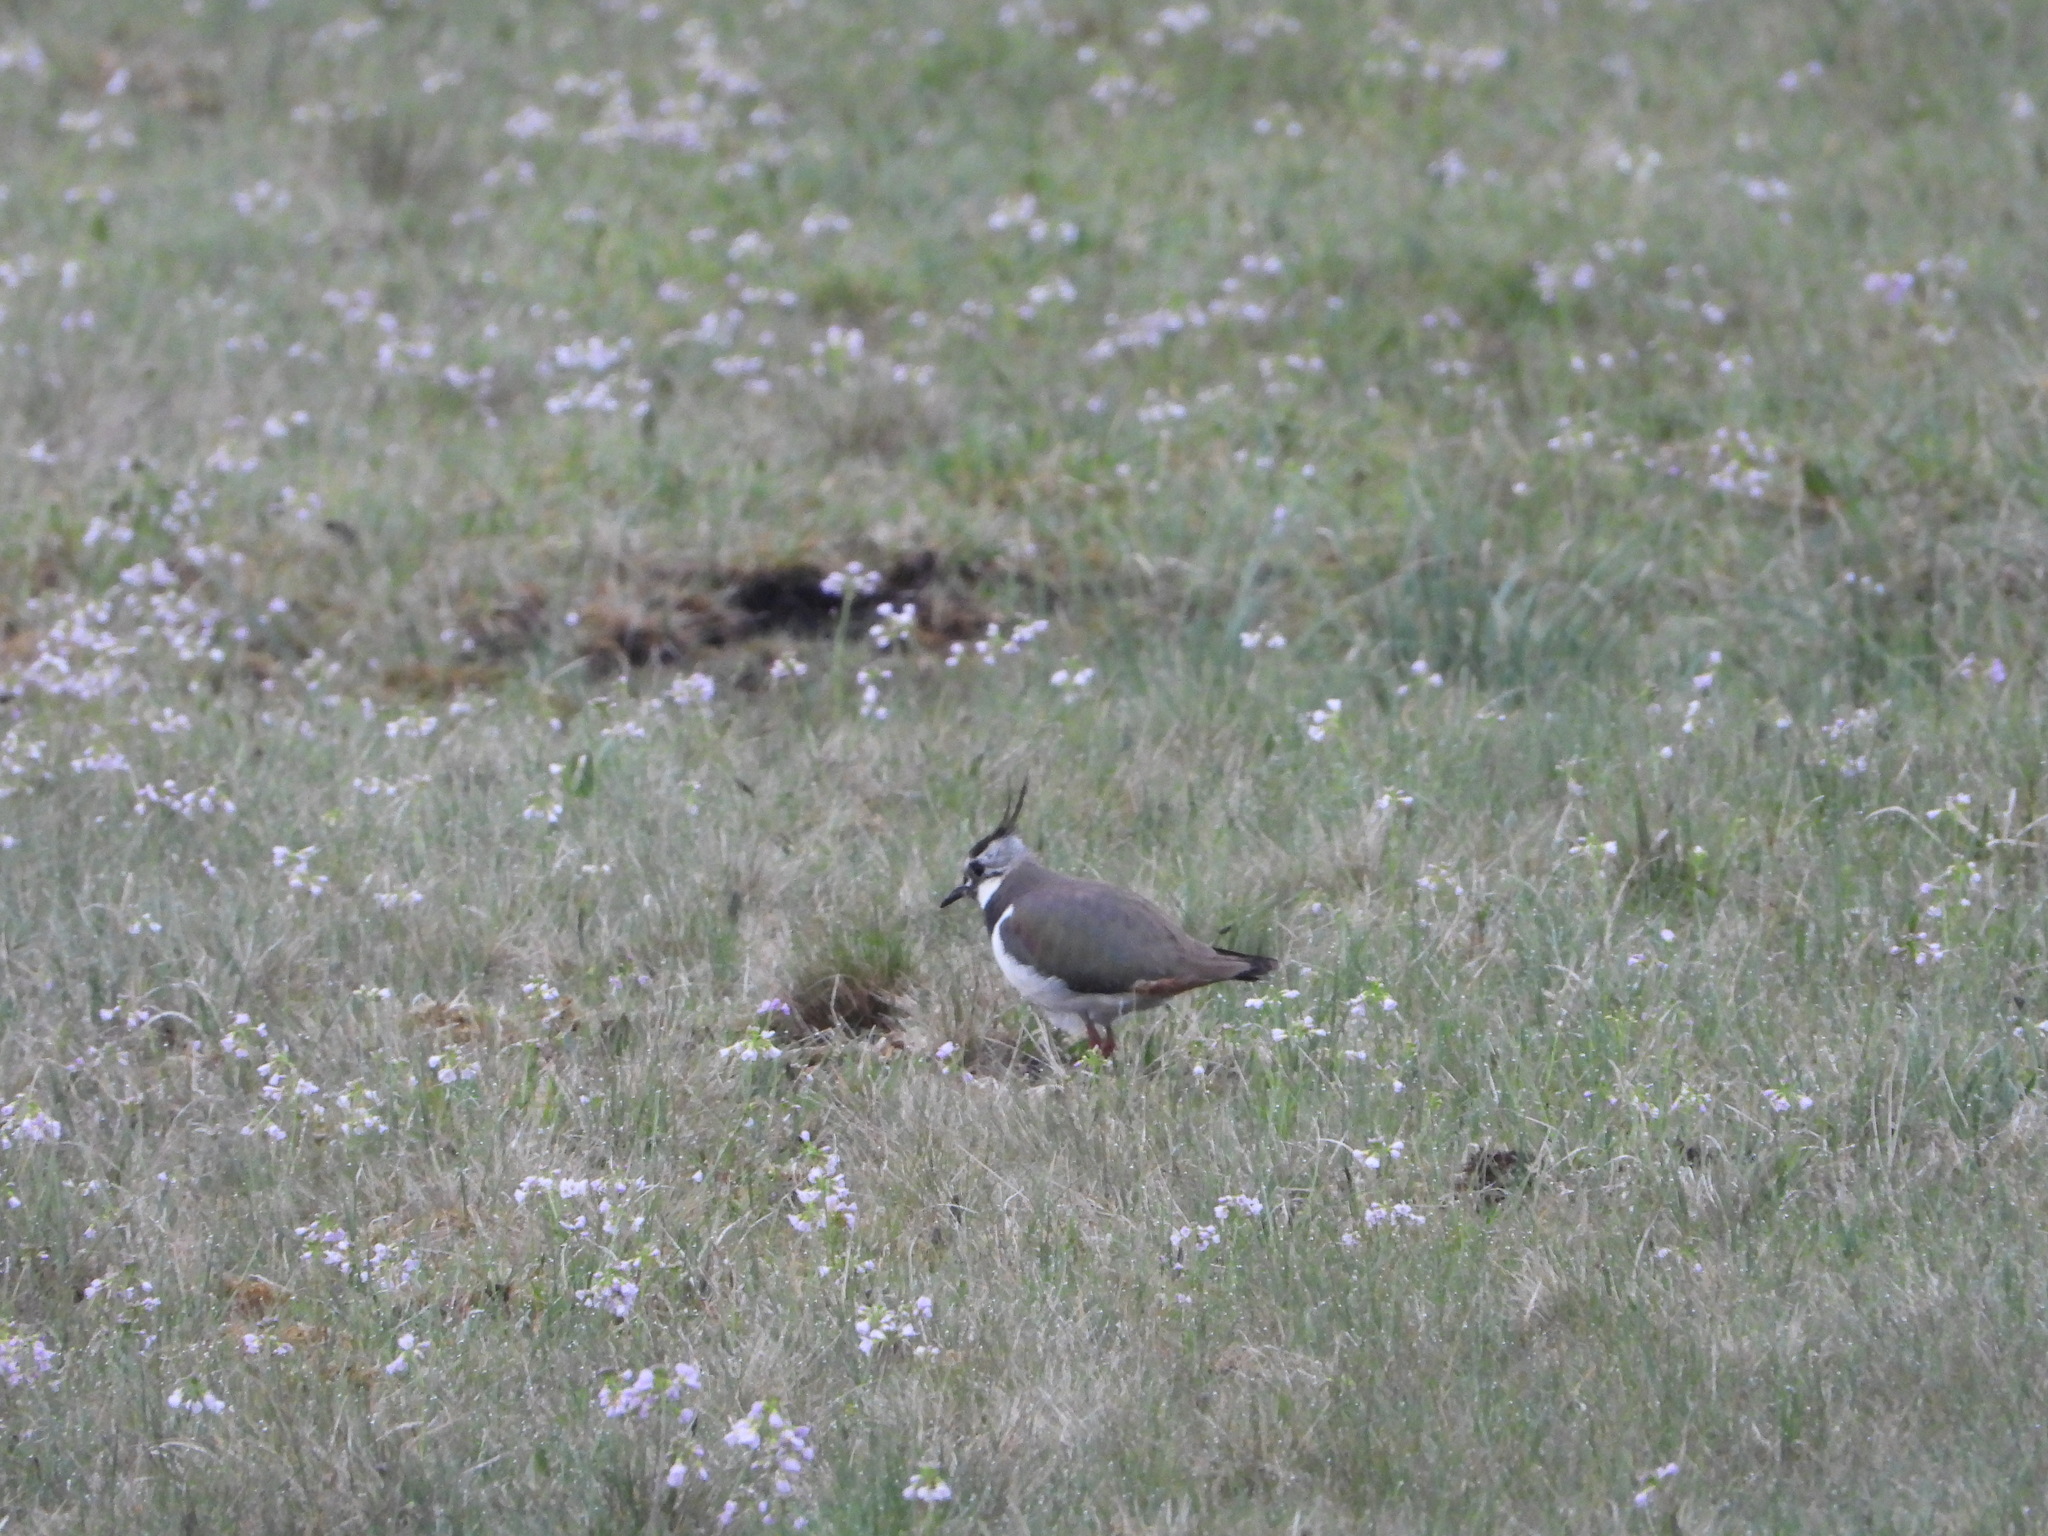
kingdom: Animalia
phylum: Chordata
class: Aves
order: Charadriiformes
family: Charadriidae
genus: Vanellus
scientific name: Vanellus vanellus
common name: Northern lapwing
